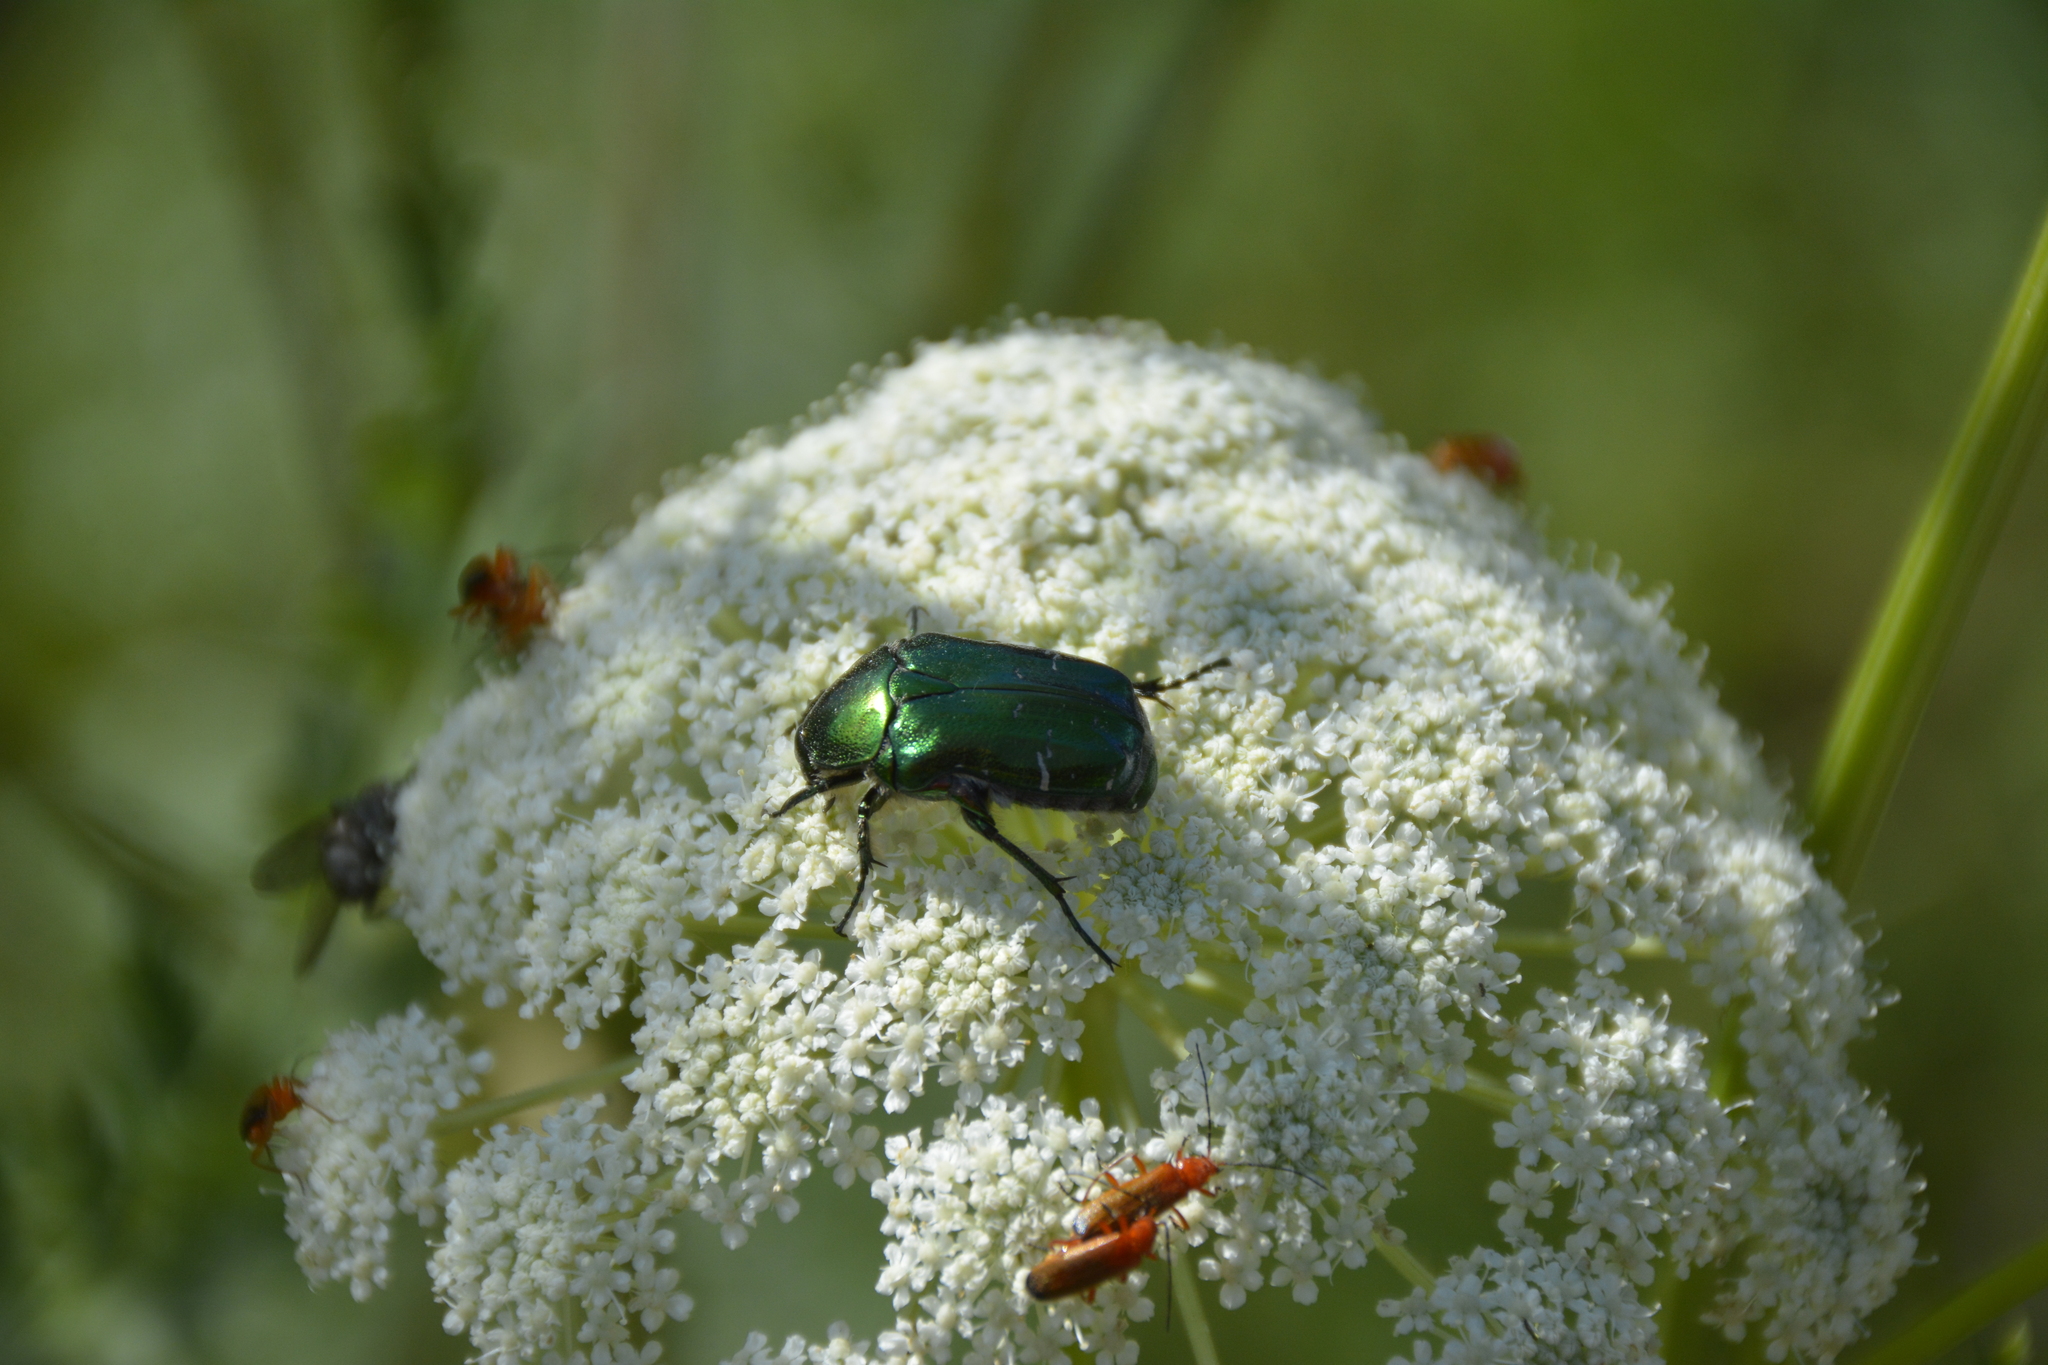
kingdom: Animalia
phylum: Arthropoda
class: Insecta
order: Coleoptera
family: Scarabaeidae
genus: Cetonia
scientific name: Cetonia aurata
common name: Rose chafer
